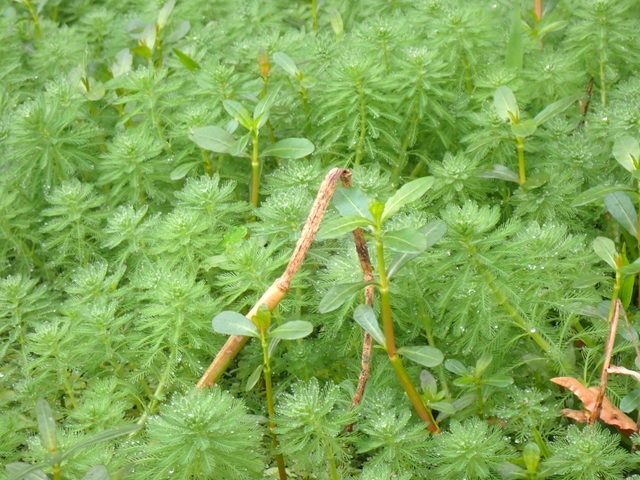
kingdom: Plantae
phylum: Tracheophyta
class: Magnoliopsida
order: Saxifragales
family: Haloragaceae
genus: Myriophyllum
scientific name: Myriophyllum aquaticum
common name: Parrot's feather
